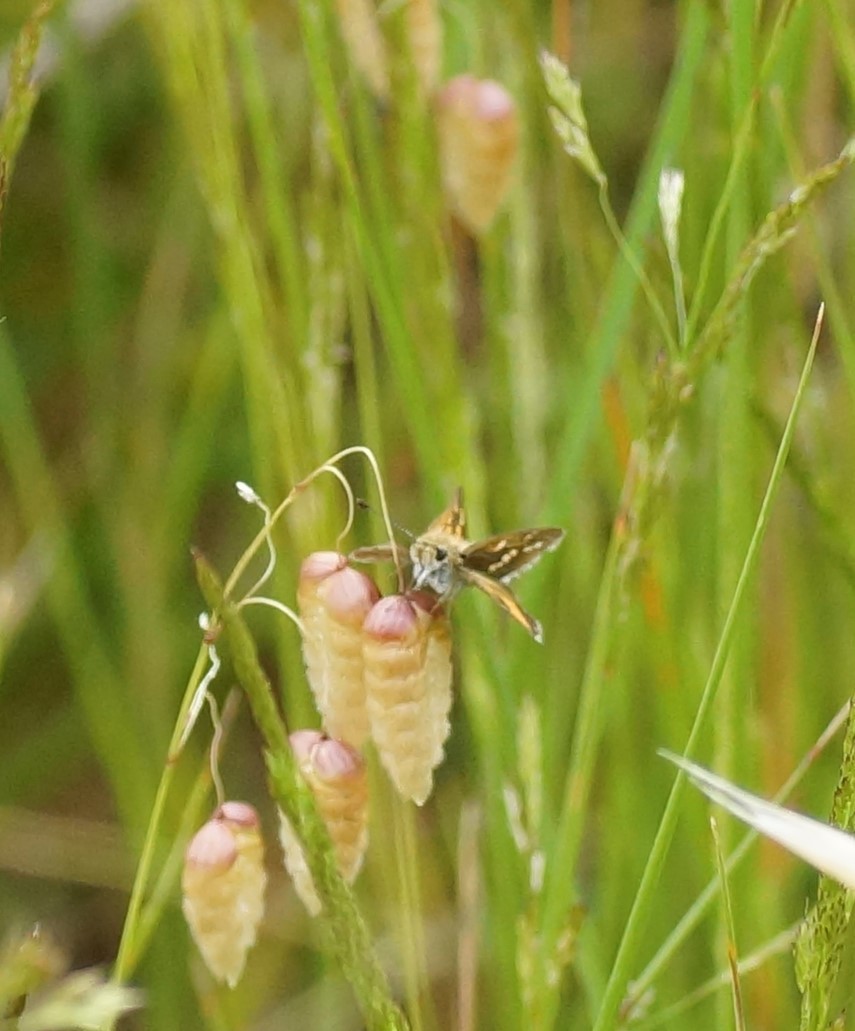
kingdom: Animalia
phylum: Arthropoda
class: Insecta
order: Lepidoptera
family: Hesperiidae
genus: Taractrocera
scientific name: Taractrocera papyria
